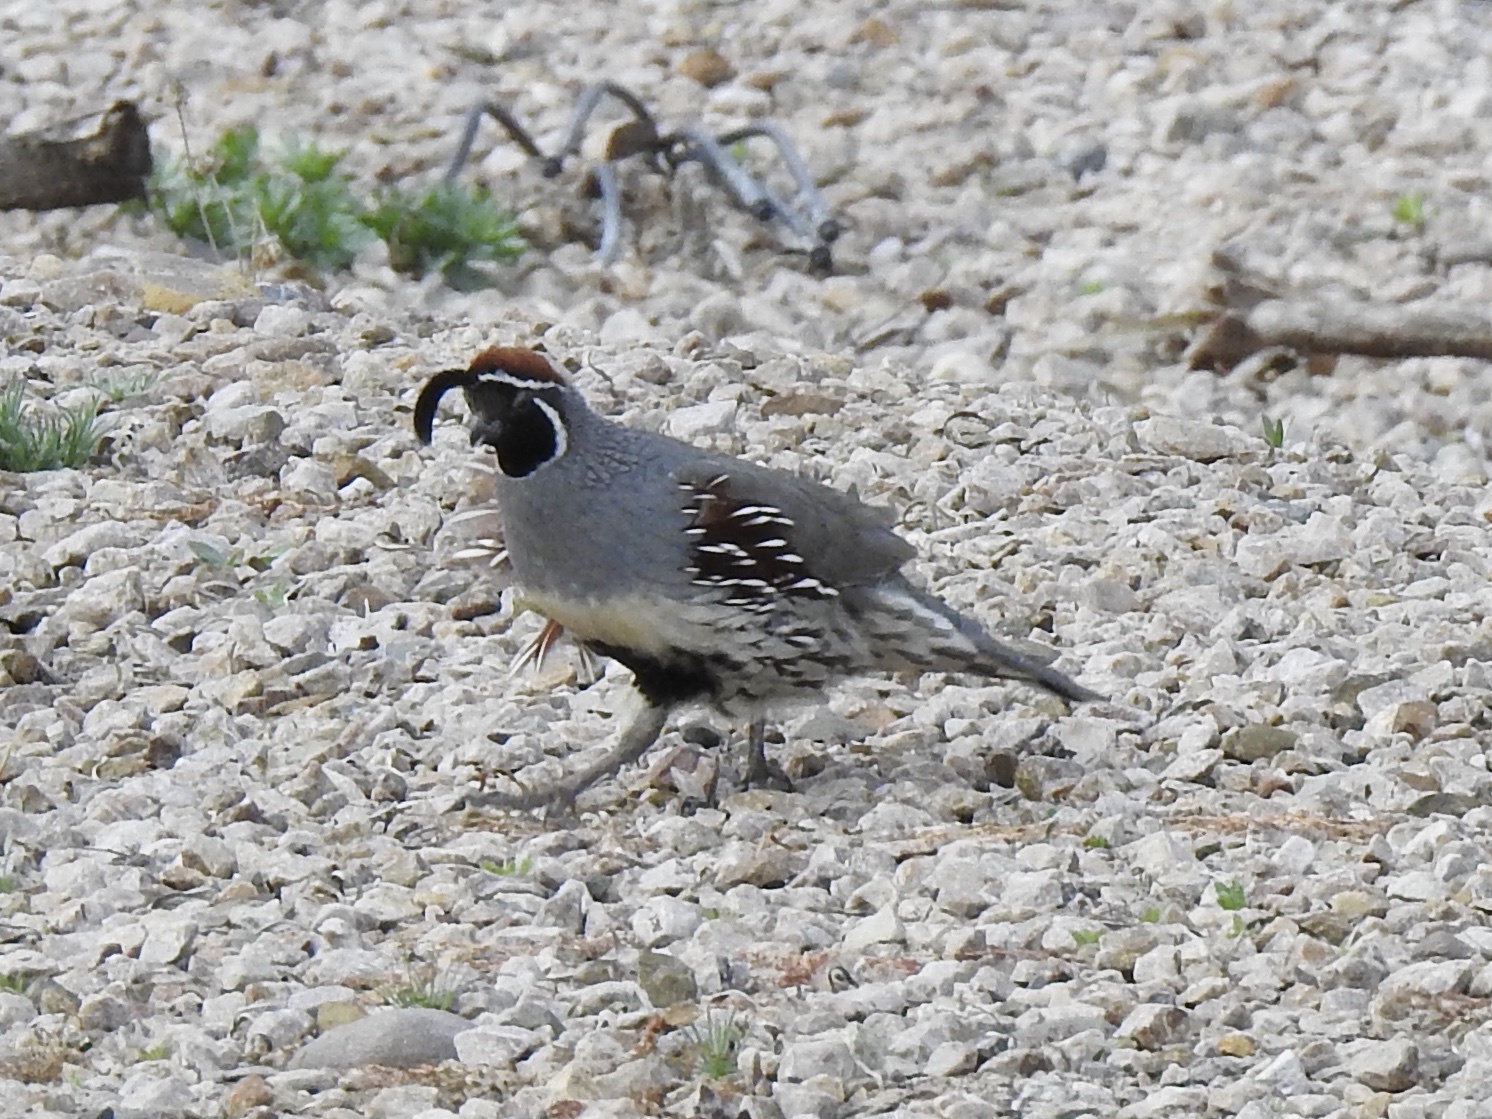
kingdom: Animalia
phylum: Chordata
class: Aves
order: Galliformes
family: Odontophoridae
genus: Callipepla
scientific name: Callipepla gambelii
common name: Gambel's quail
